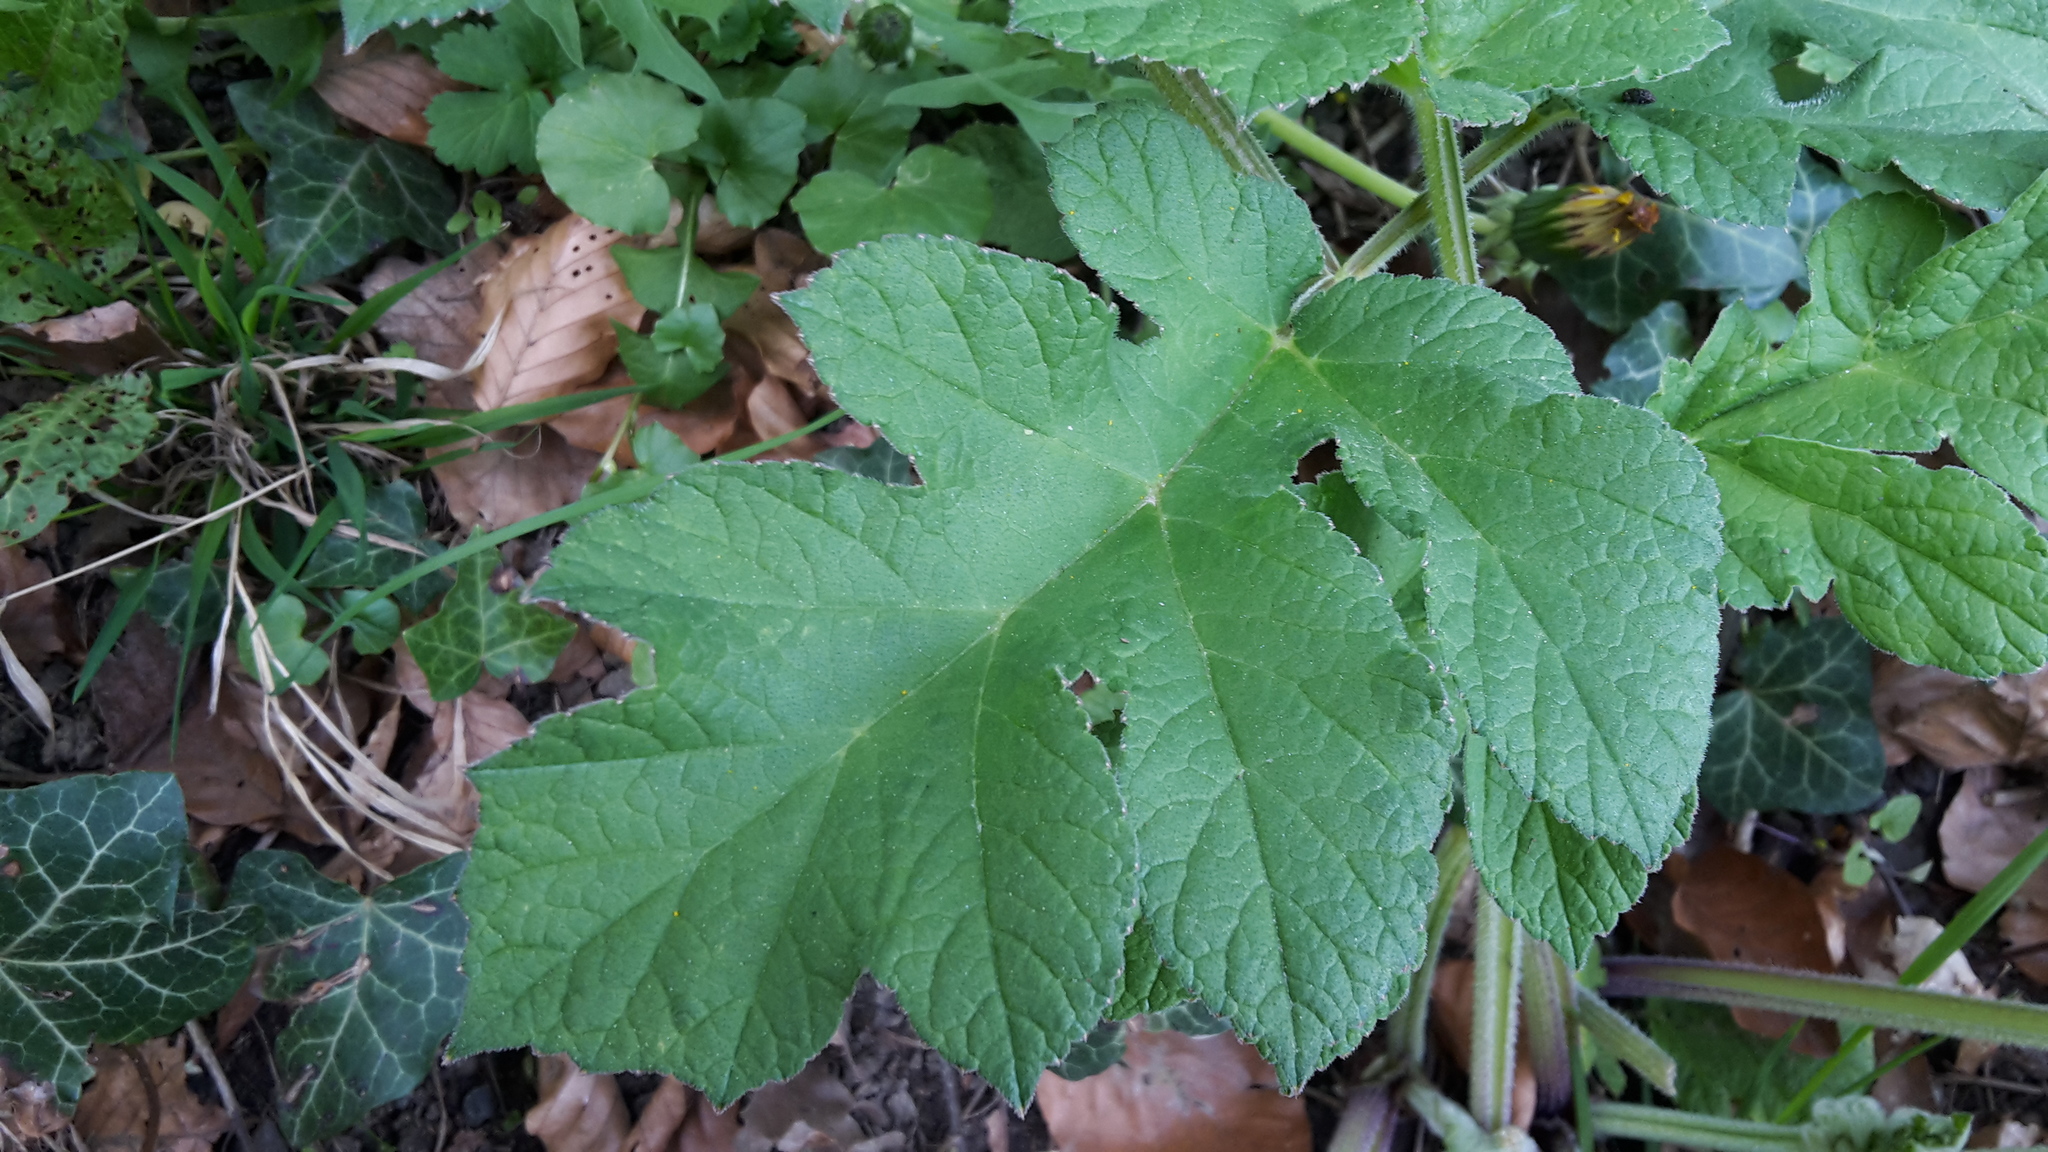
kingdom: Plantae
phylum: Tracheophyta
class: Magnoliopsida
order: Apiales
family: Apiaceae
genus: Heracleum
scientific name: Heracleum sphondylium
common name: Hogweed
